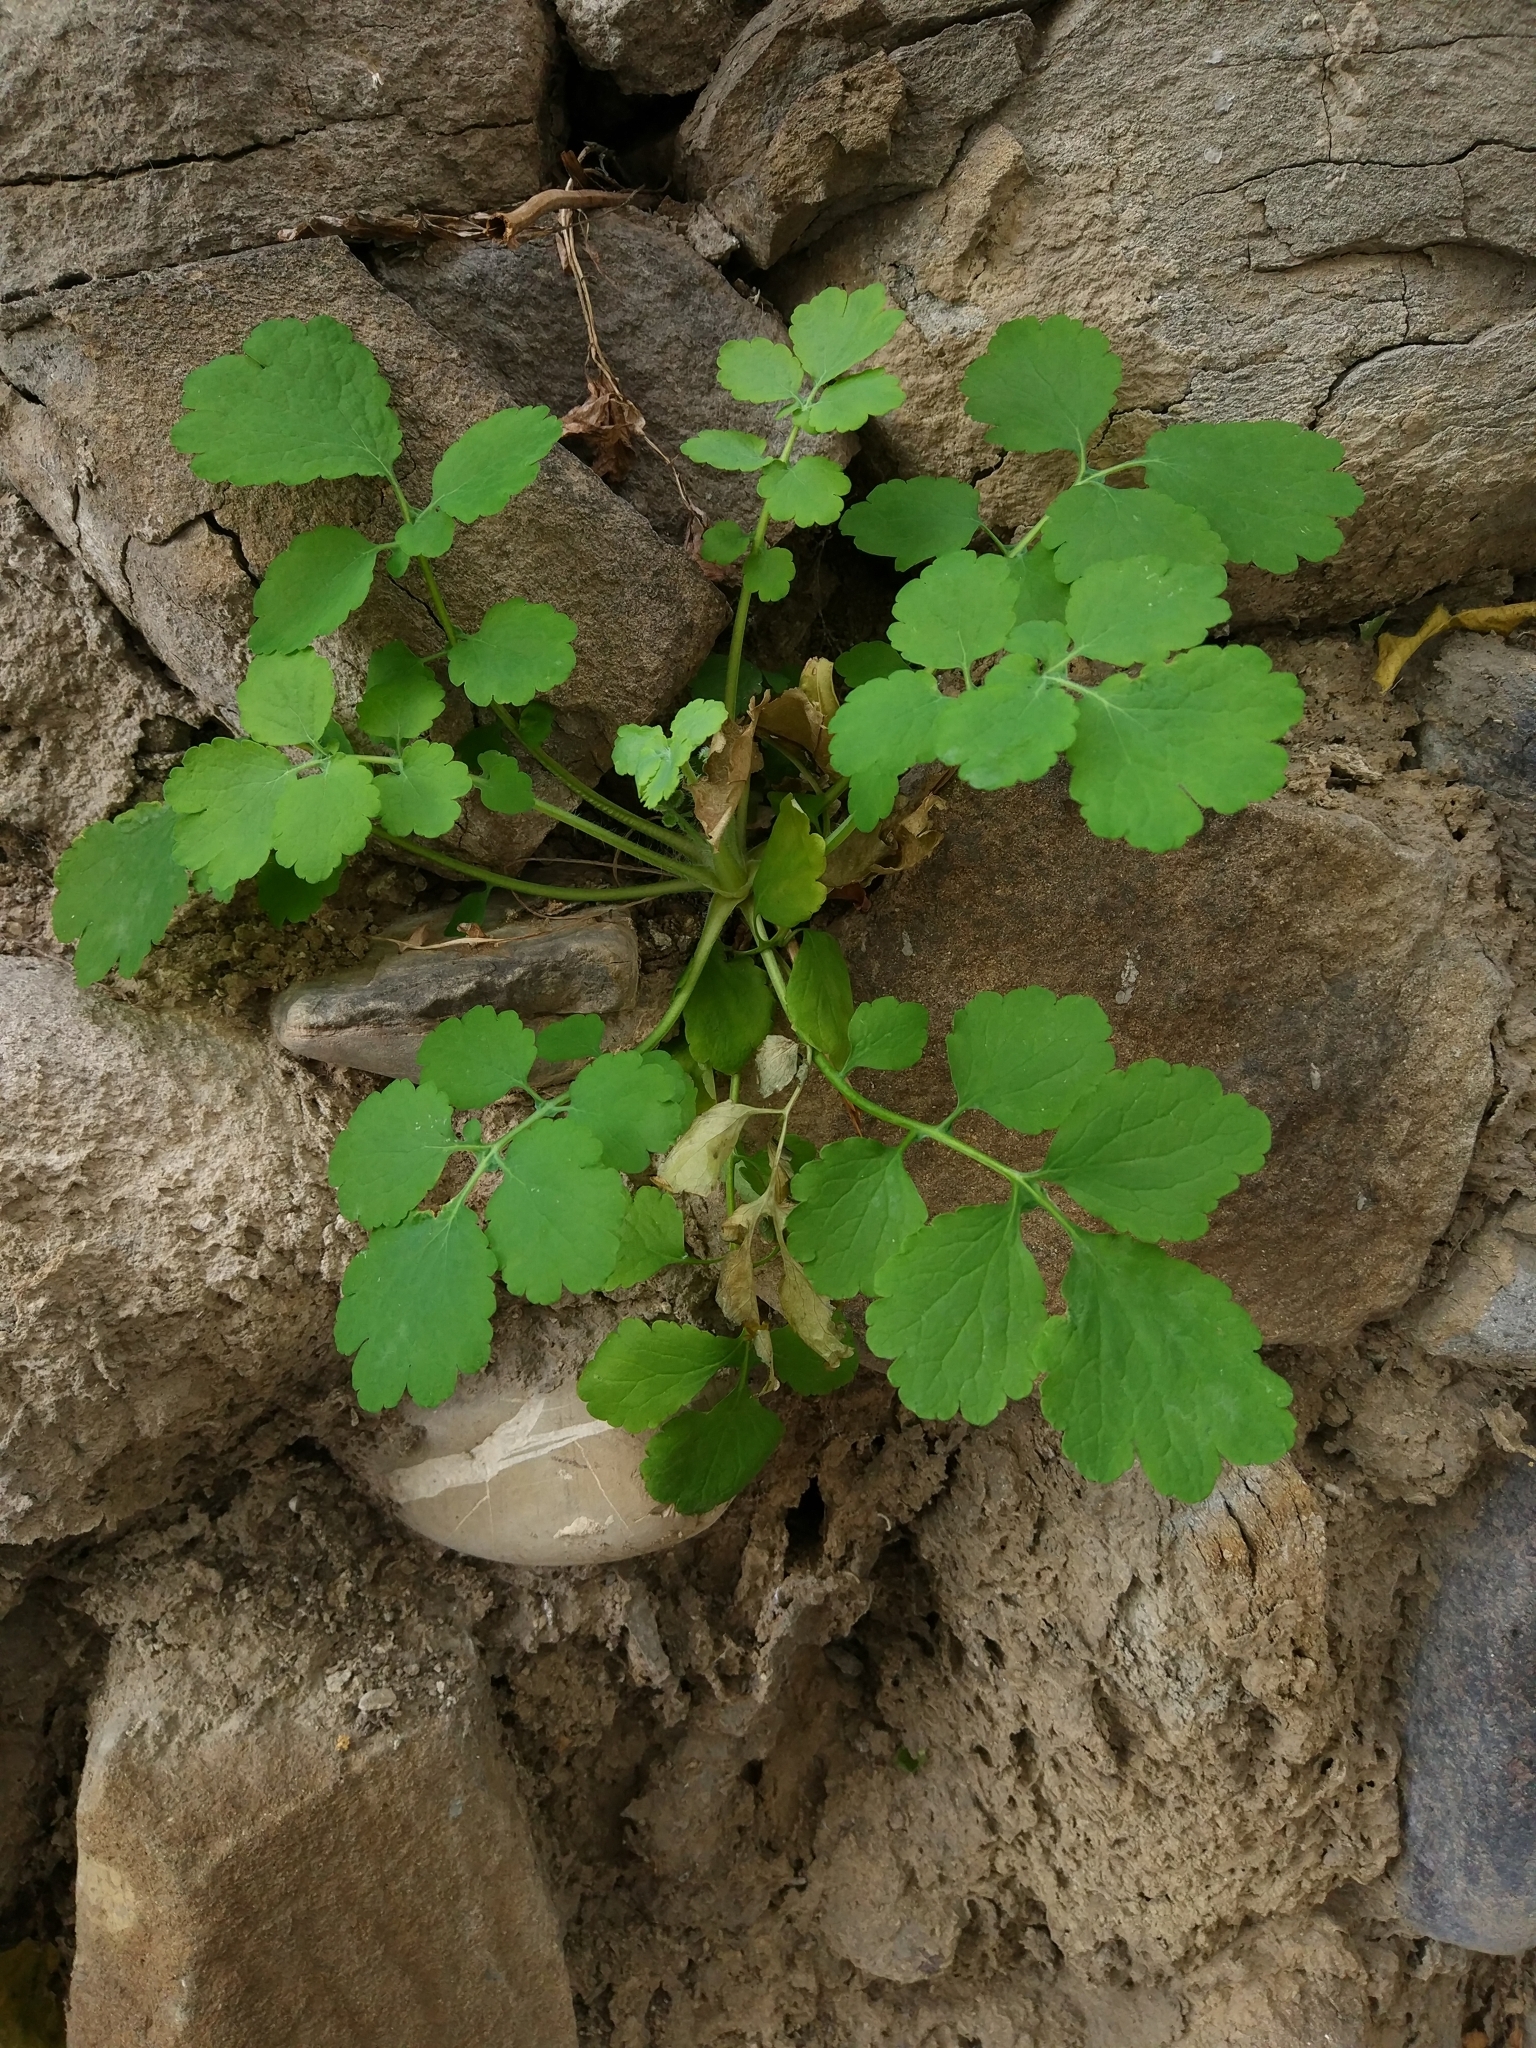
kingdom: Plantae
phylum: Tracheophyta
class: Magnoliopsida
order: Ranunculales
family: Papaveraceae
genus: Chelidonium
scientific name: Chelidonium majus
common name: Greater celandine
